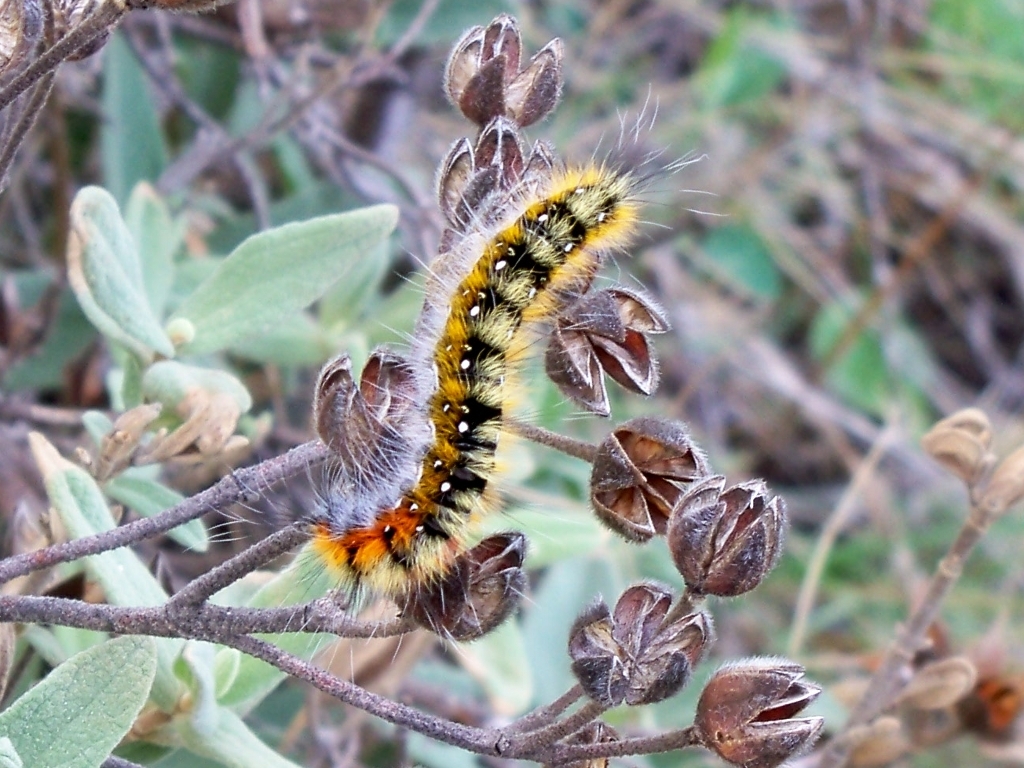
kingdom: Animalia
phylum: Arthropoda
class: Insecta
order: Lepidoptera
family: Lasiocampidae
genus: Psilogaster
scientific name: Psilogaster loti
